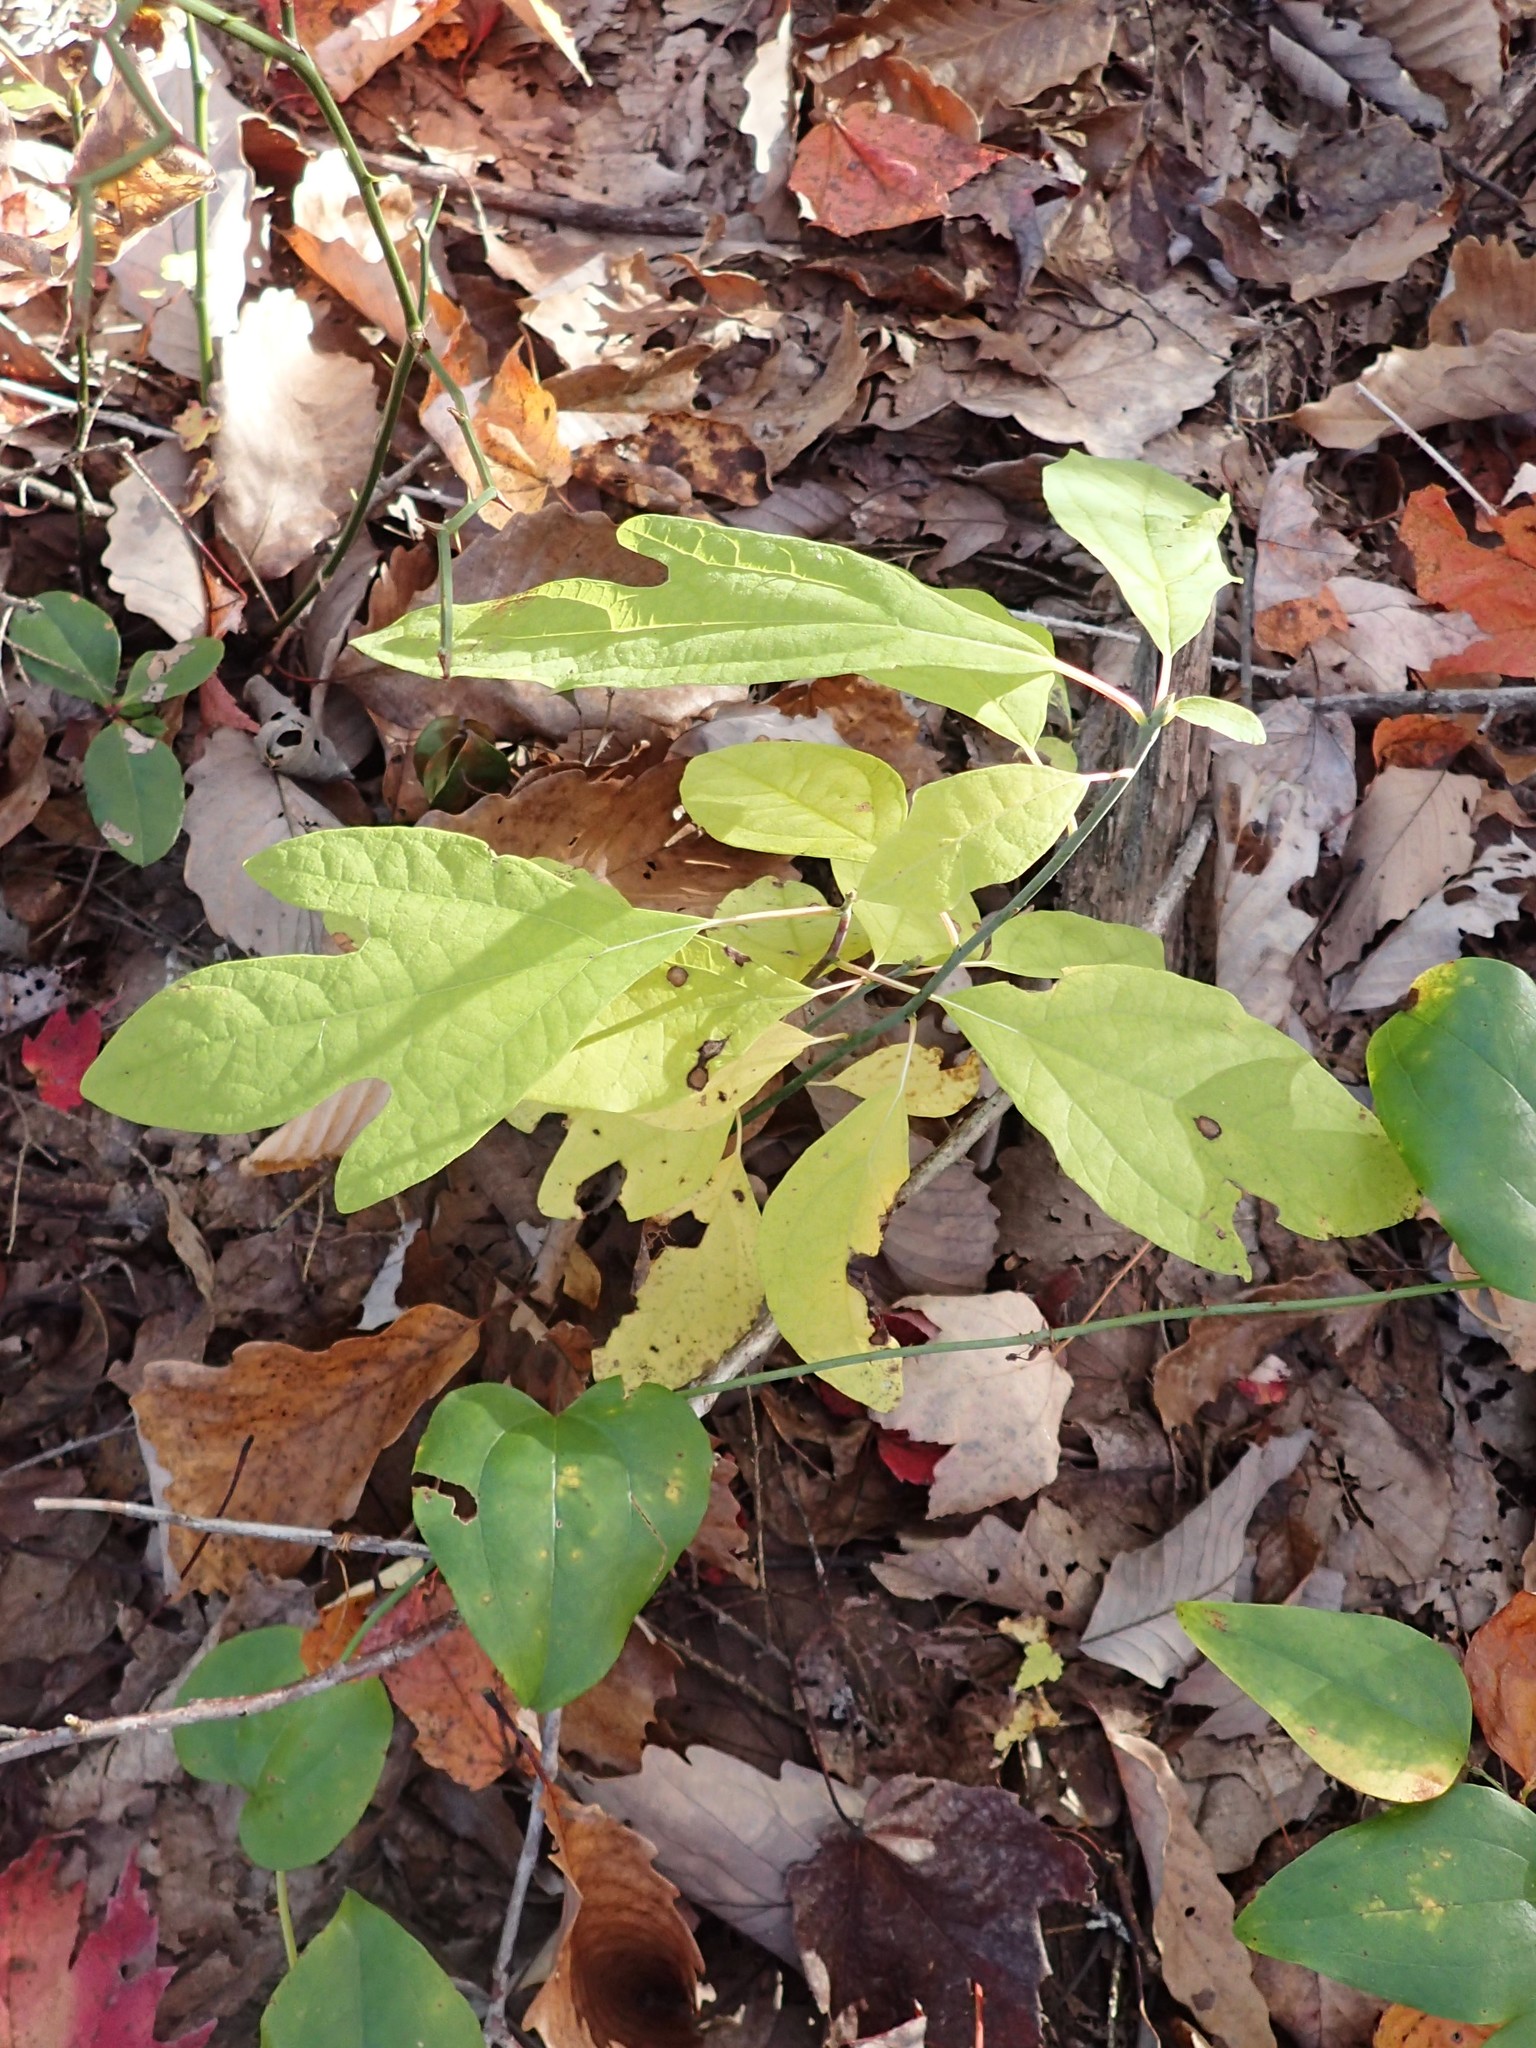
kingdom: Plantae
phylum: Tracheophyta
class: Magnoliopsida
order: Laurales
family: Lauraceae
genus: Sassafras
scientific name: Sassafras albidum
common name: Sassafras
